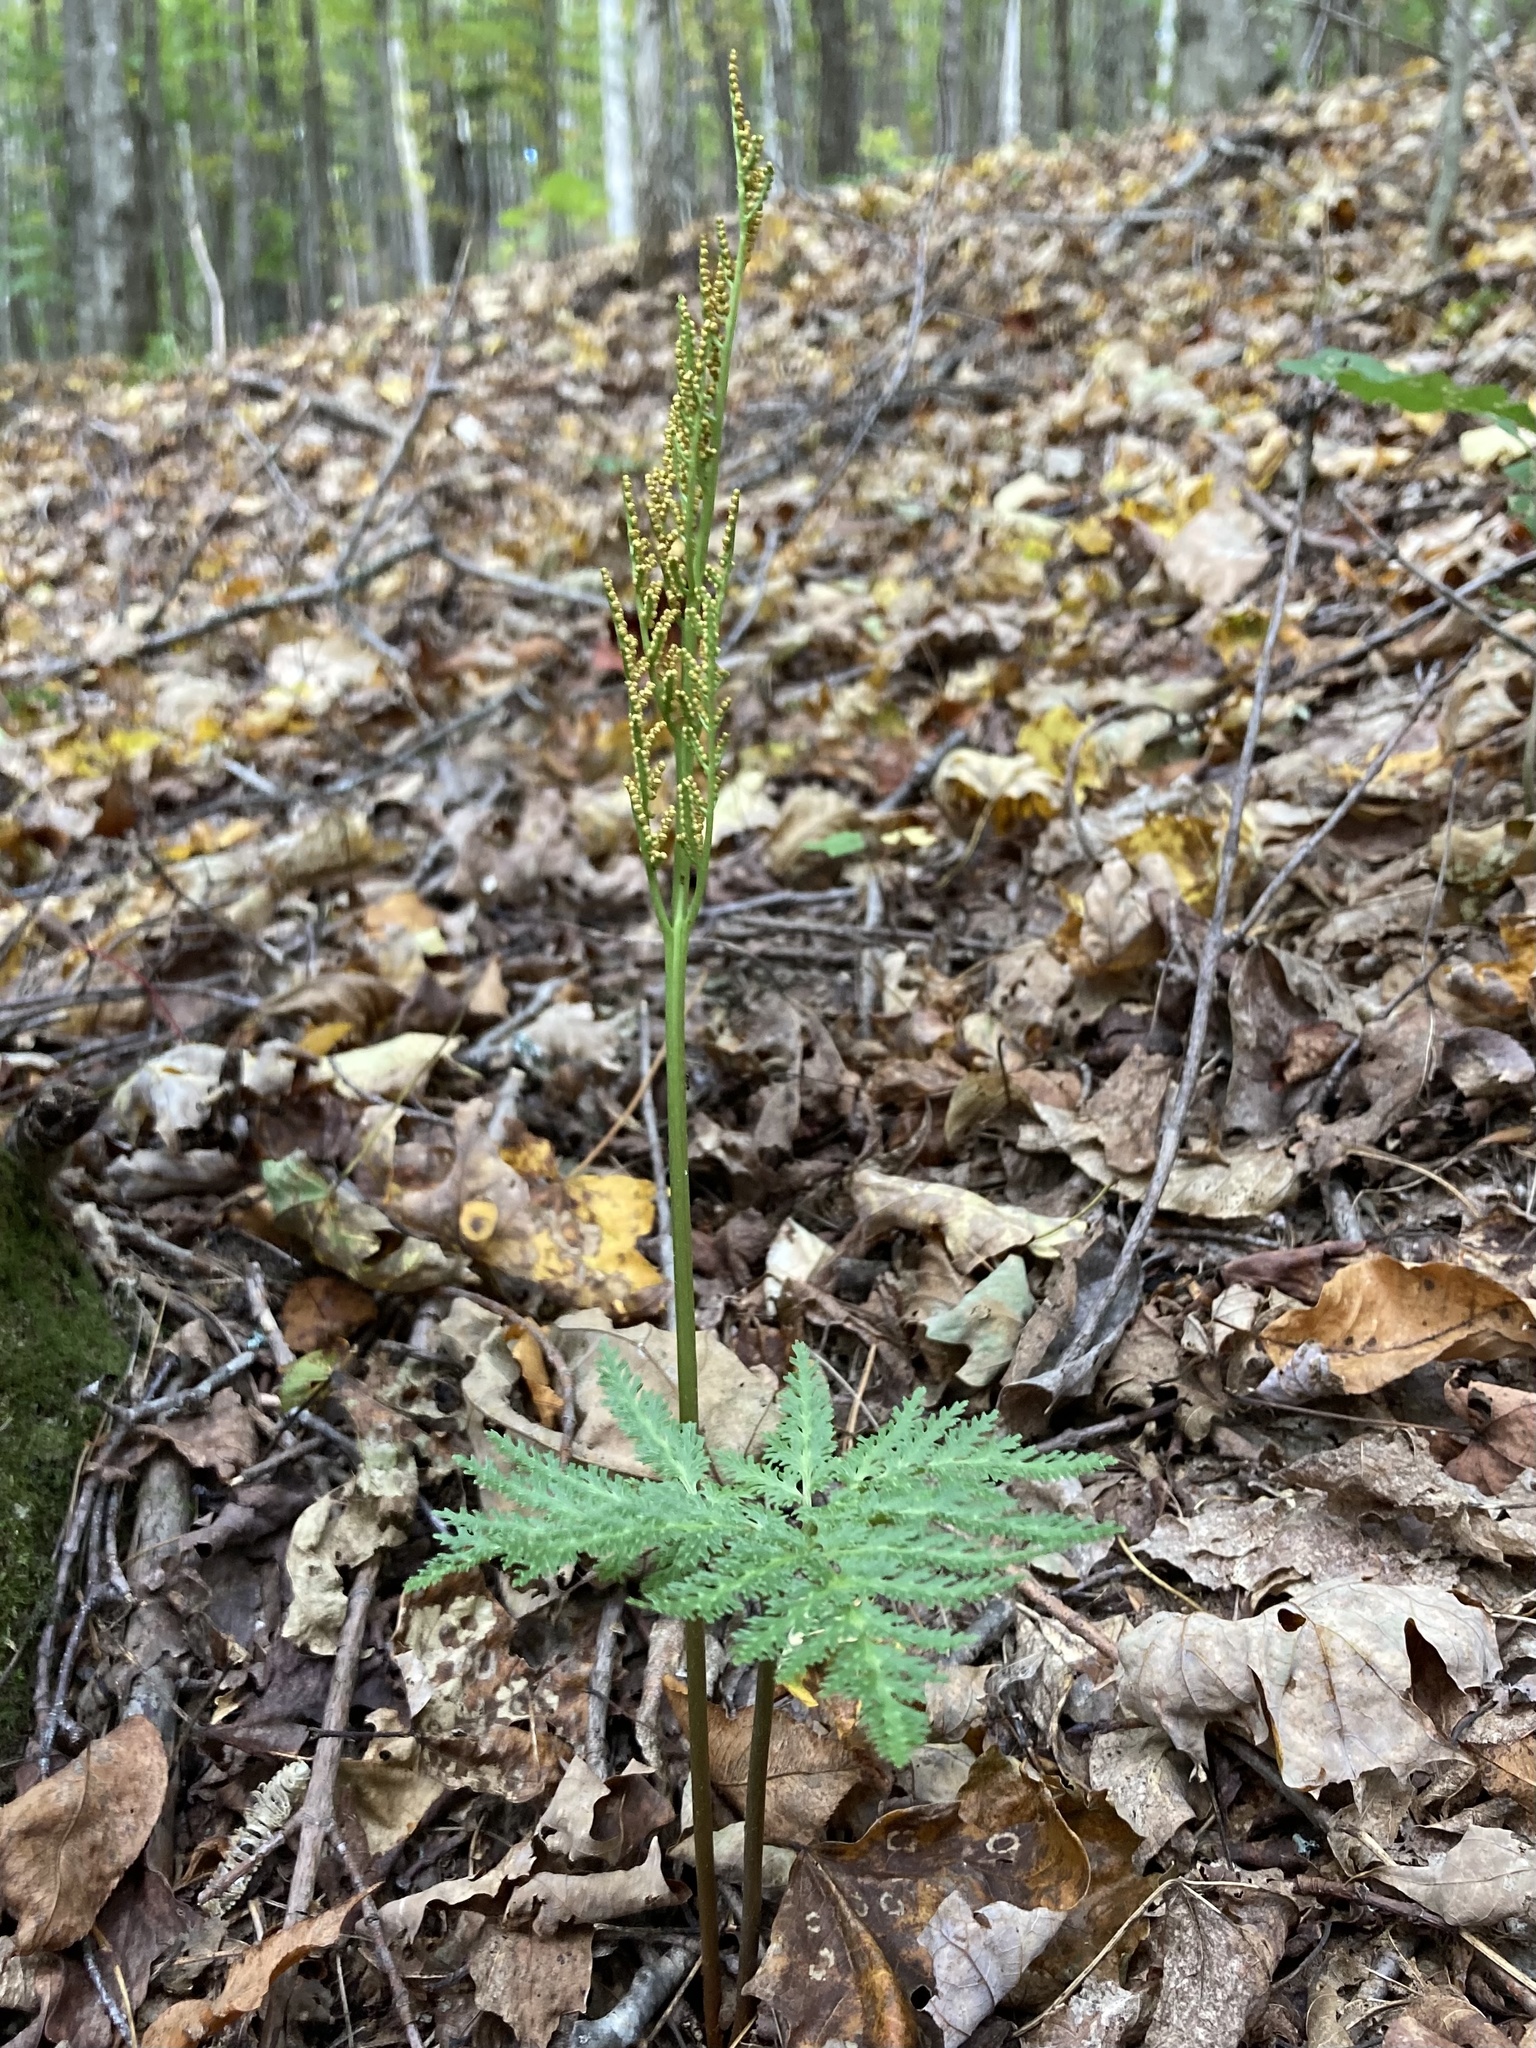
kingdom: Plantae
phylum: Tracheophyta
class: Polypodiopsida
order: Ophioglossales
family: Ophioglossaceae
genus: Sceptridium
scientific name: Sceptridium dissectum
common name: Cut-leaved grapefern
